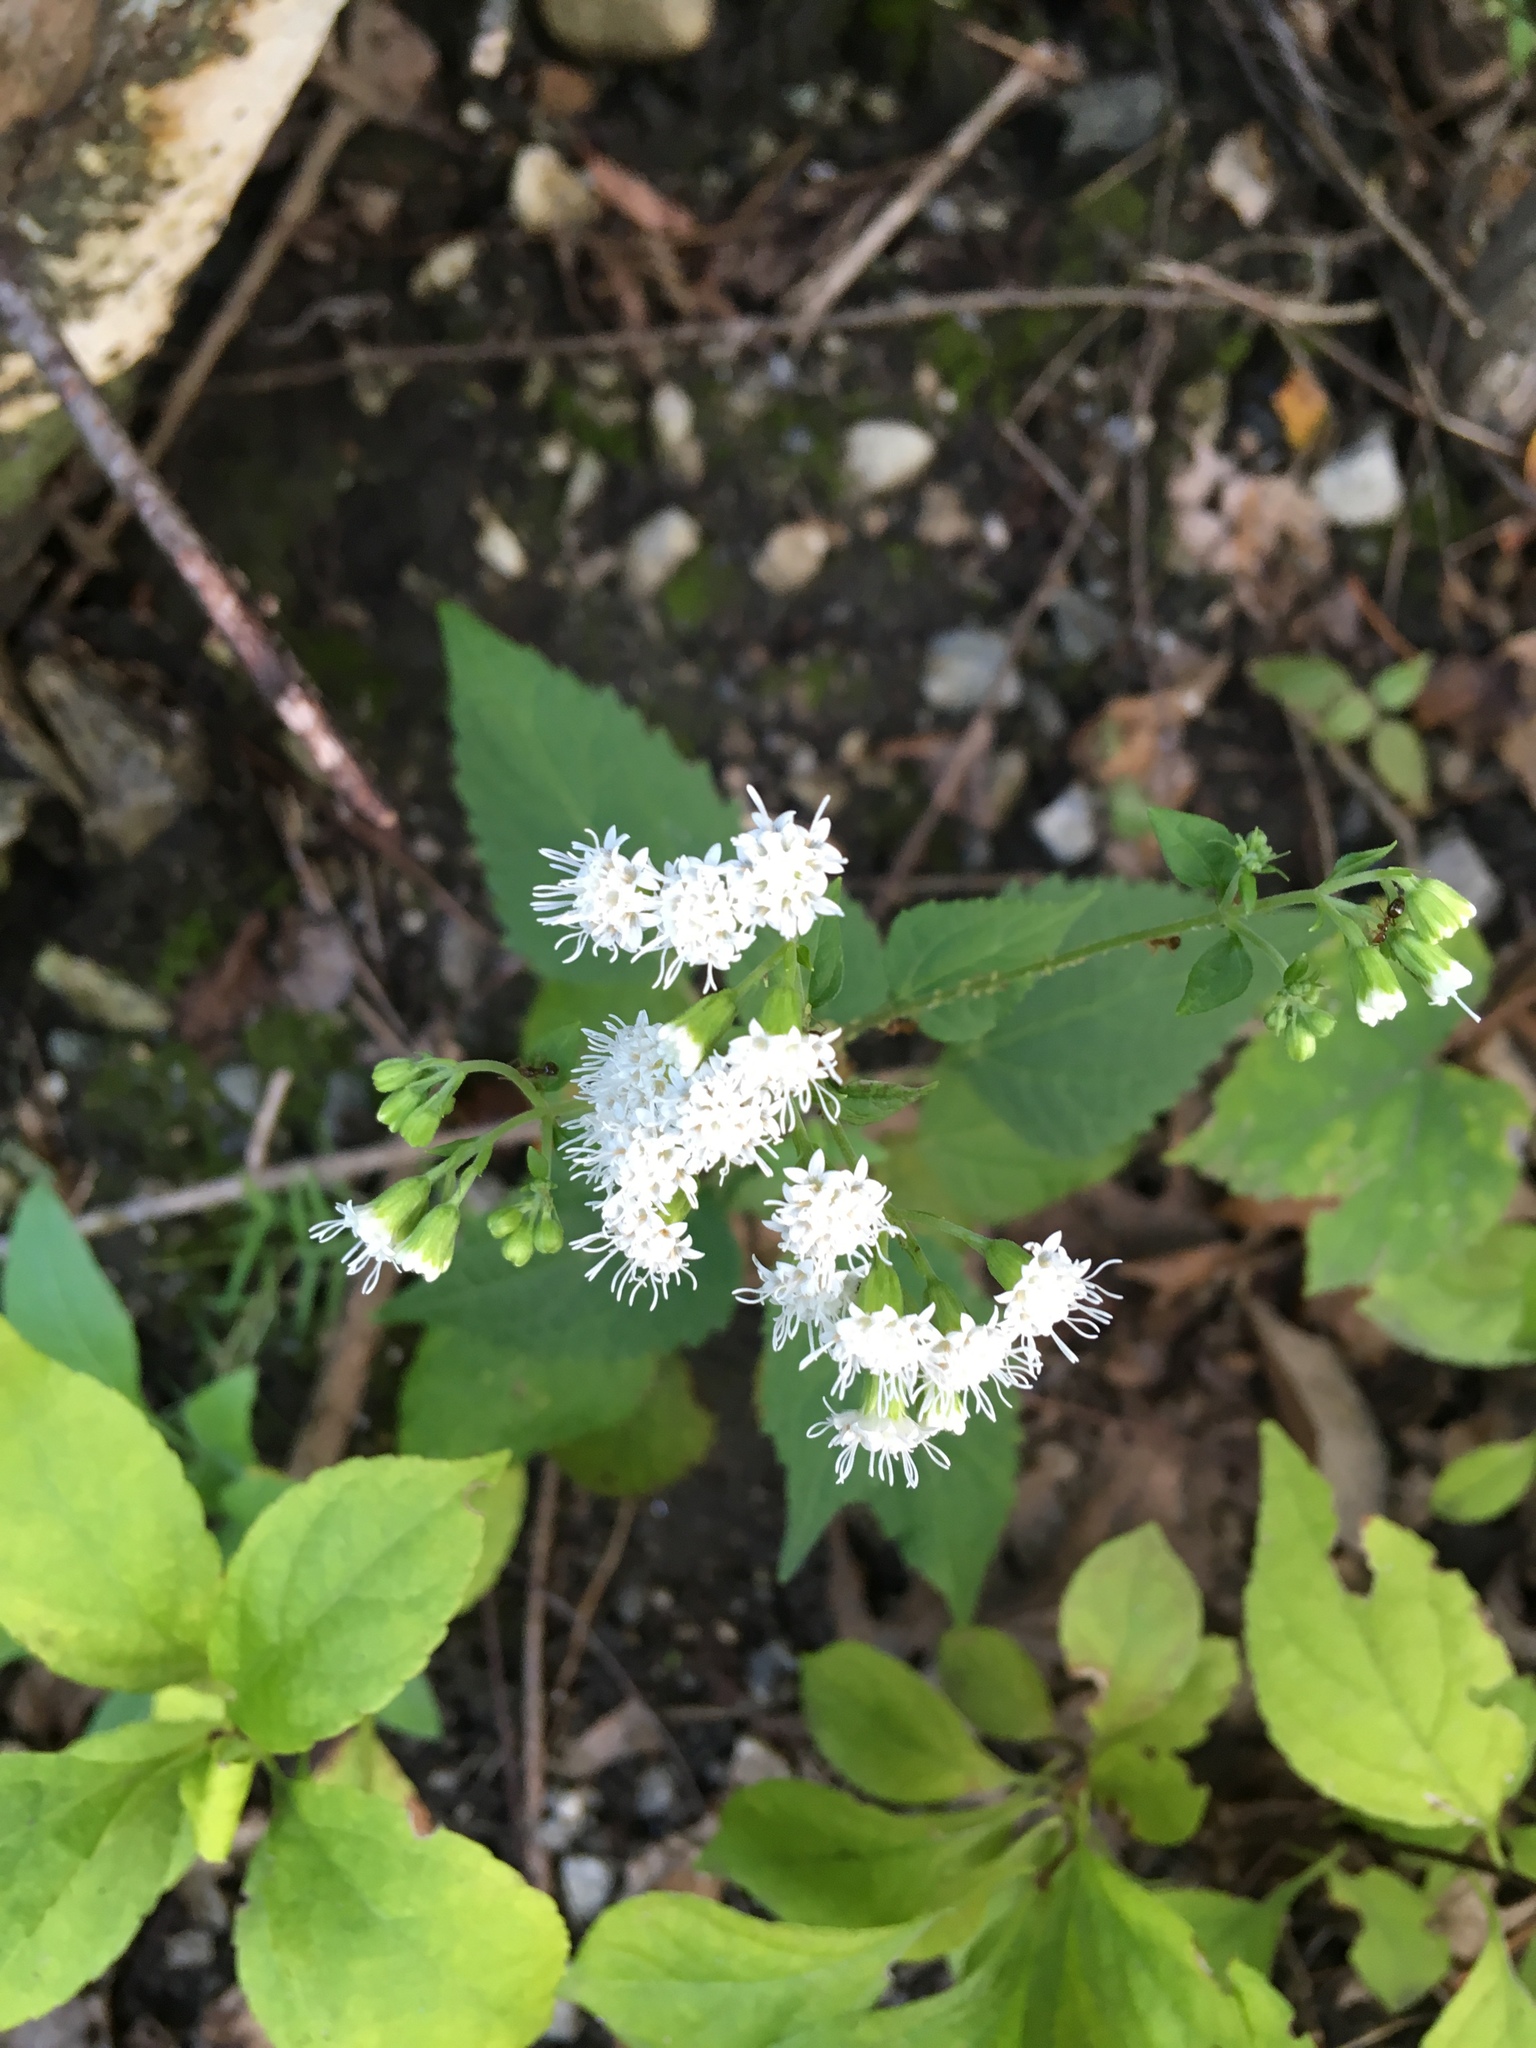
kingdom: Plantae
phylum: Tracheophyta
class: Magnoliopsida
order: Asterales
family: Asteraceae
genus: Ageratina
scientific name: Ageratina altissima
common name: White snakeroot
